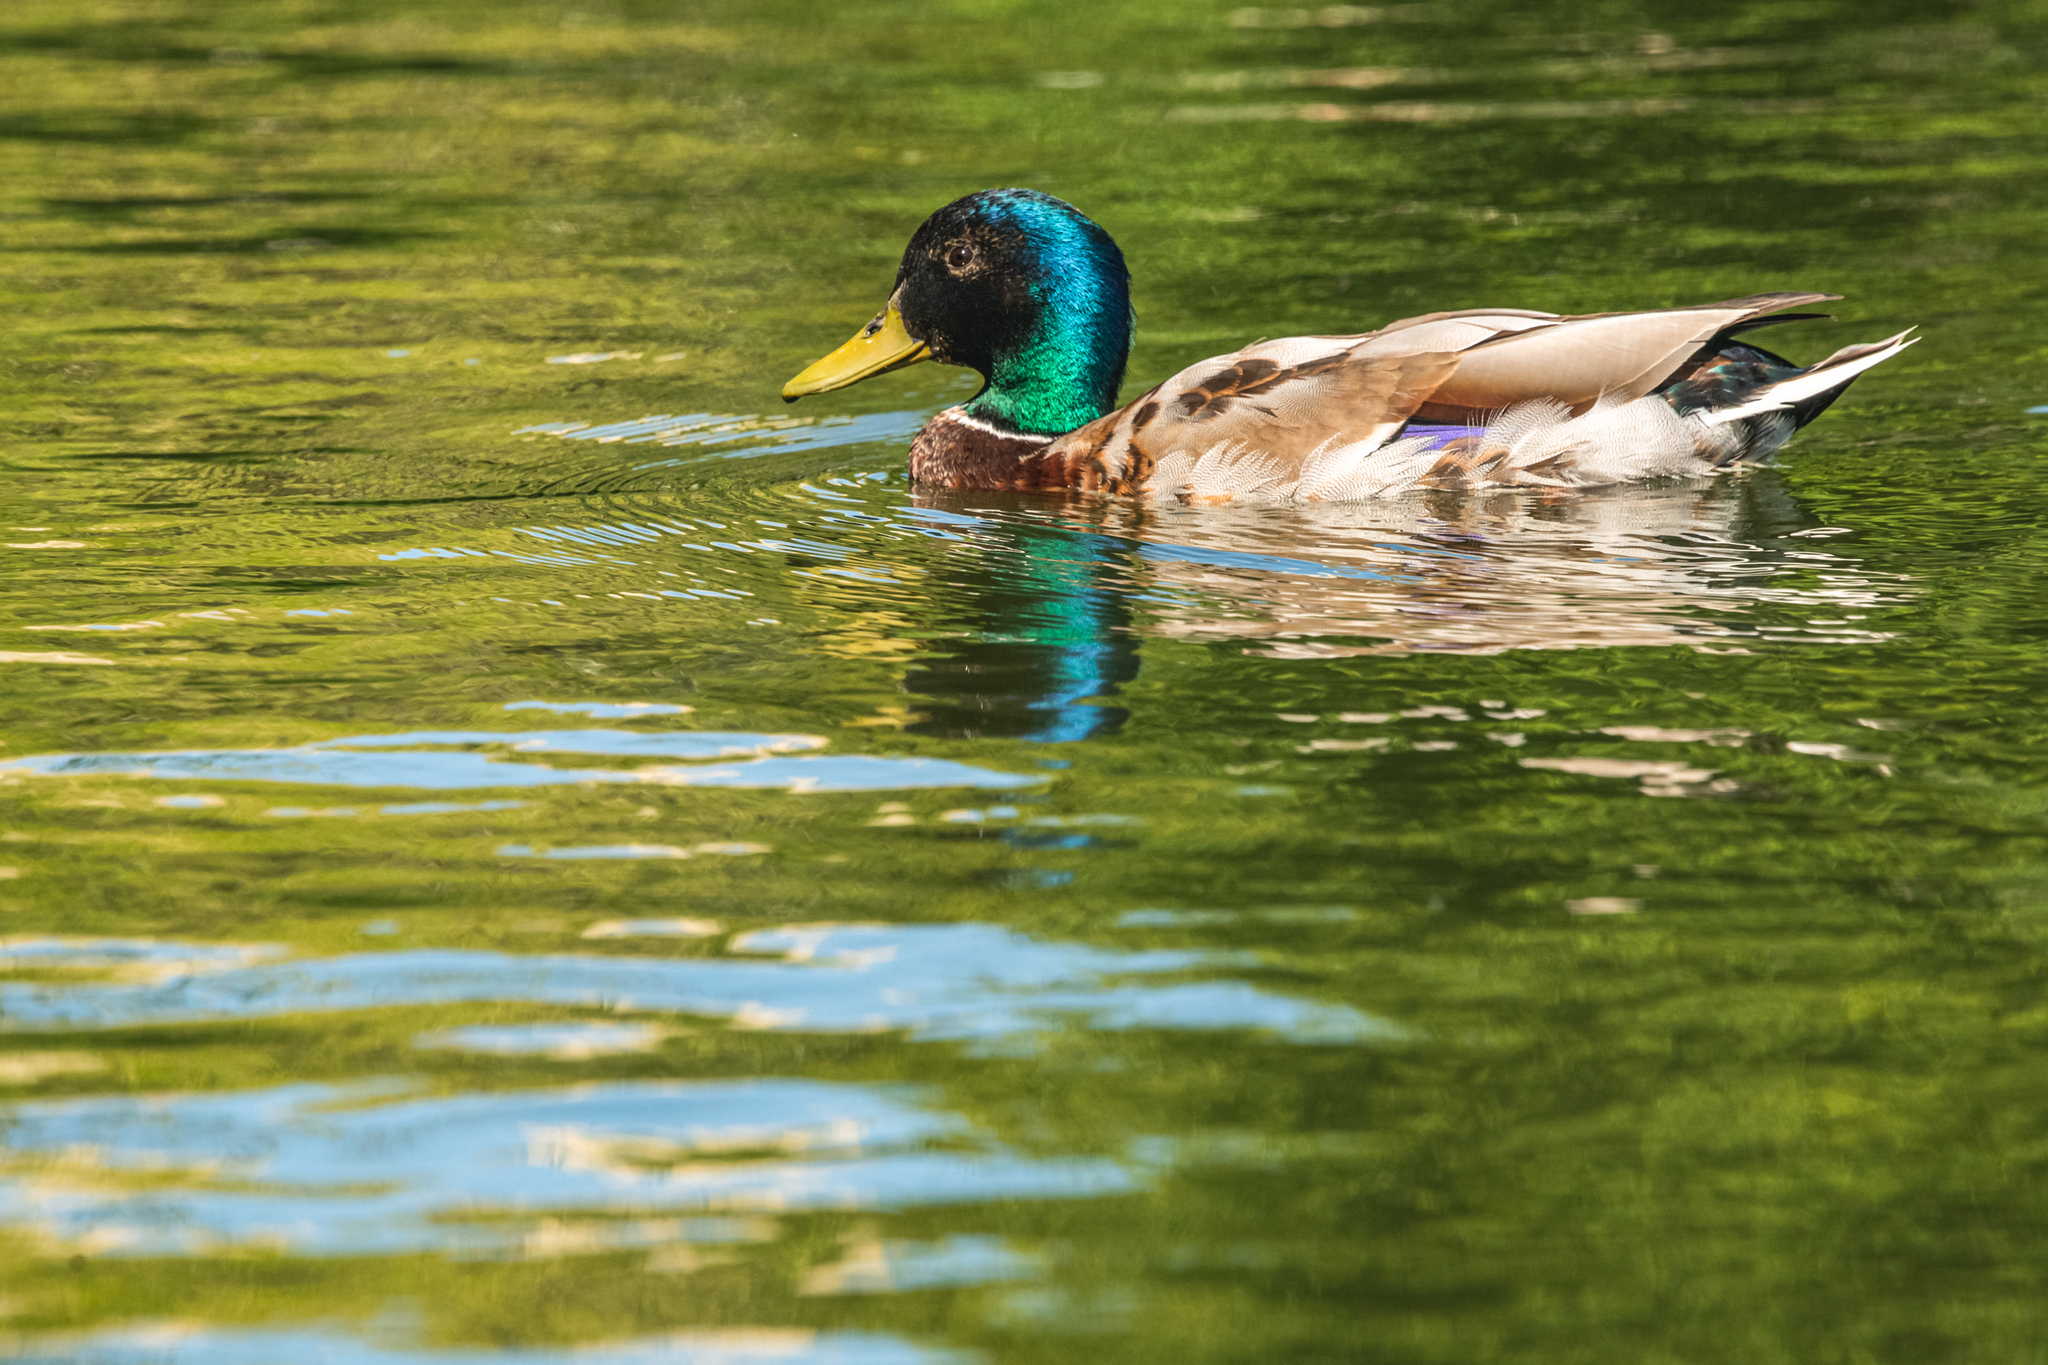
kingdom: Animalia
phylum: Chordata
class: Aves
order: Anseriformes
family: Anatidae
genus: Anas
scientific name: Anas platyrhynchos
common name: Mallard
